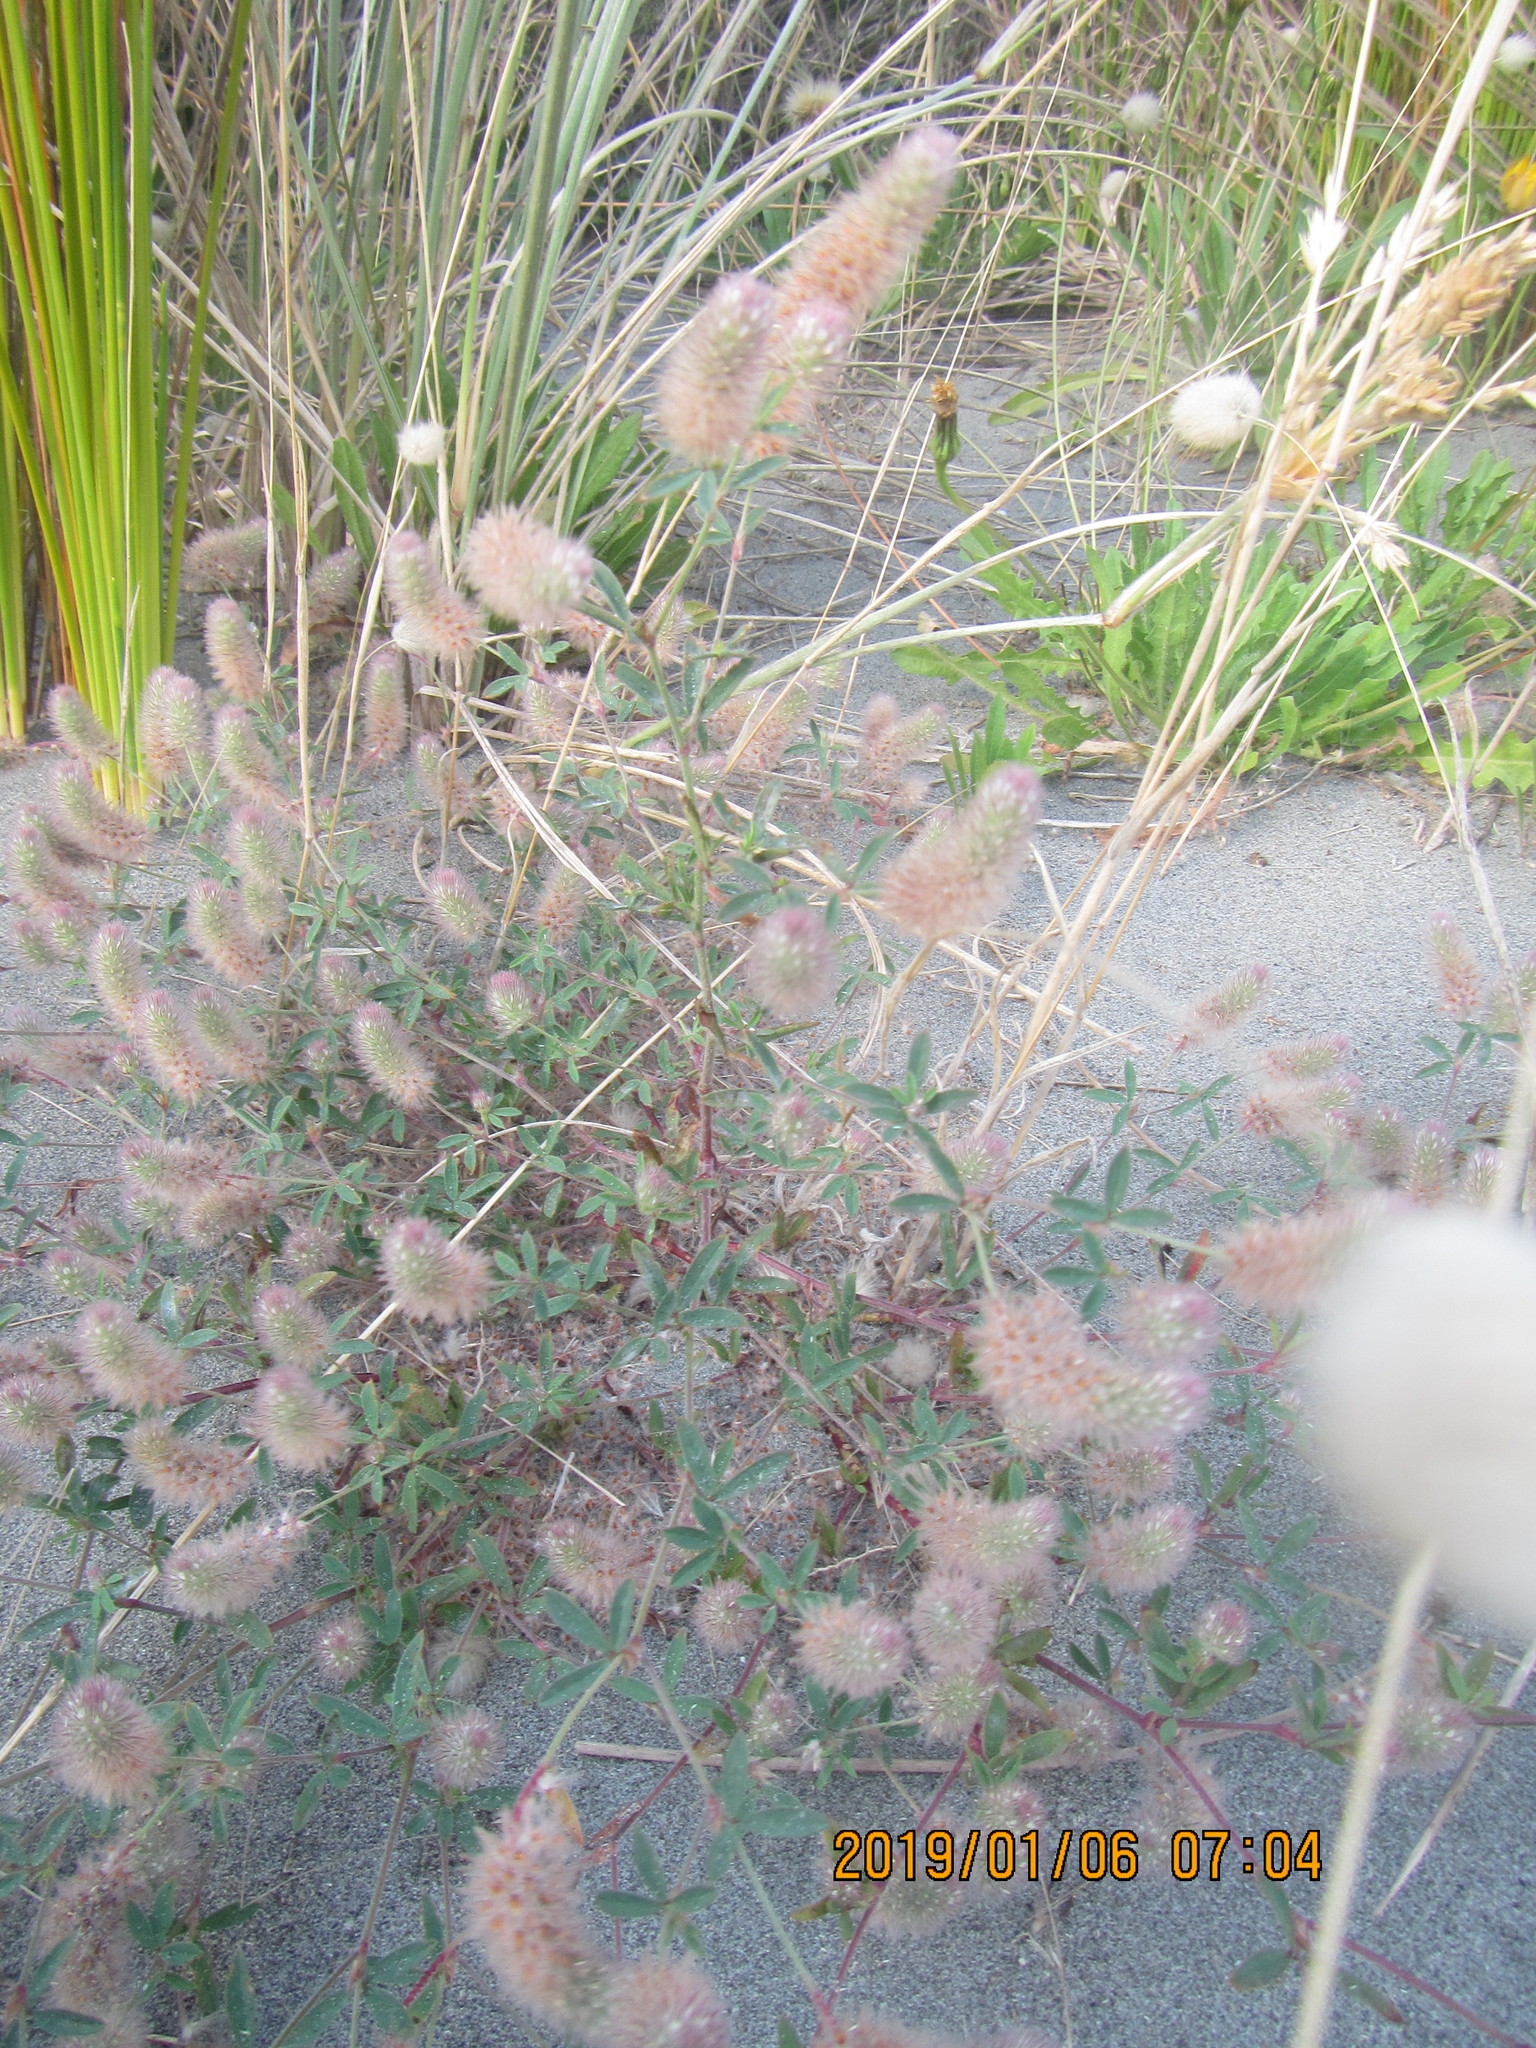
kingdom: Plantae
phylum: Tracheophyta
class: Magnoliopsida
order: Fabales
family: Fabaceae
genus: Trifolium
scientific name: Trifolium arvense
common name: Hare's-foot clover
